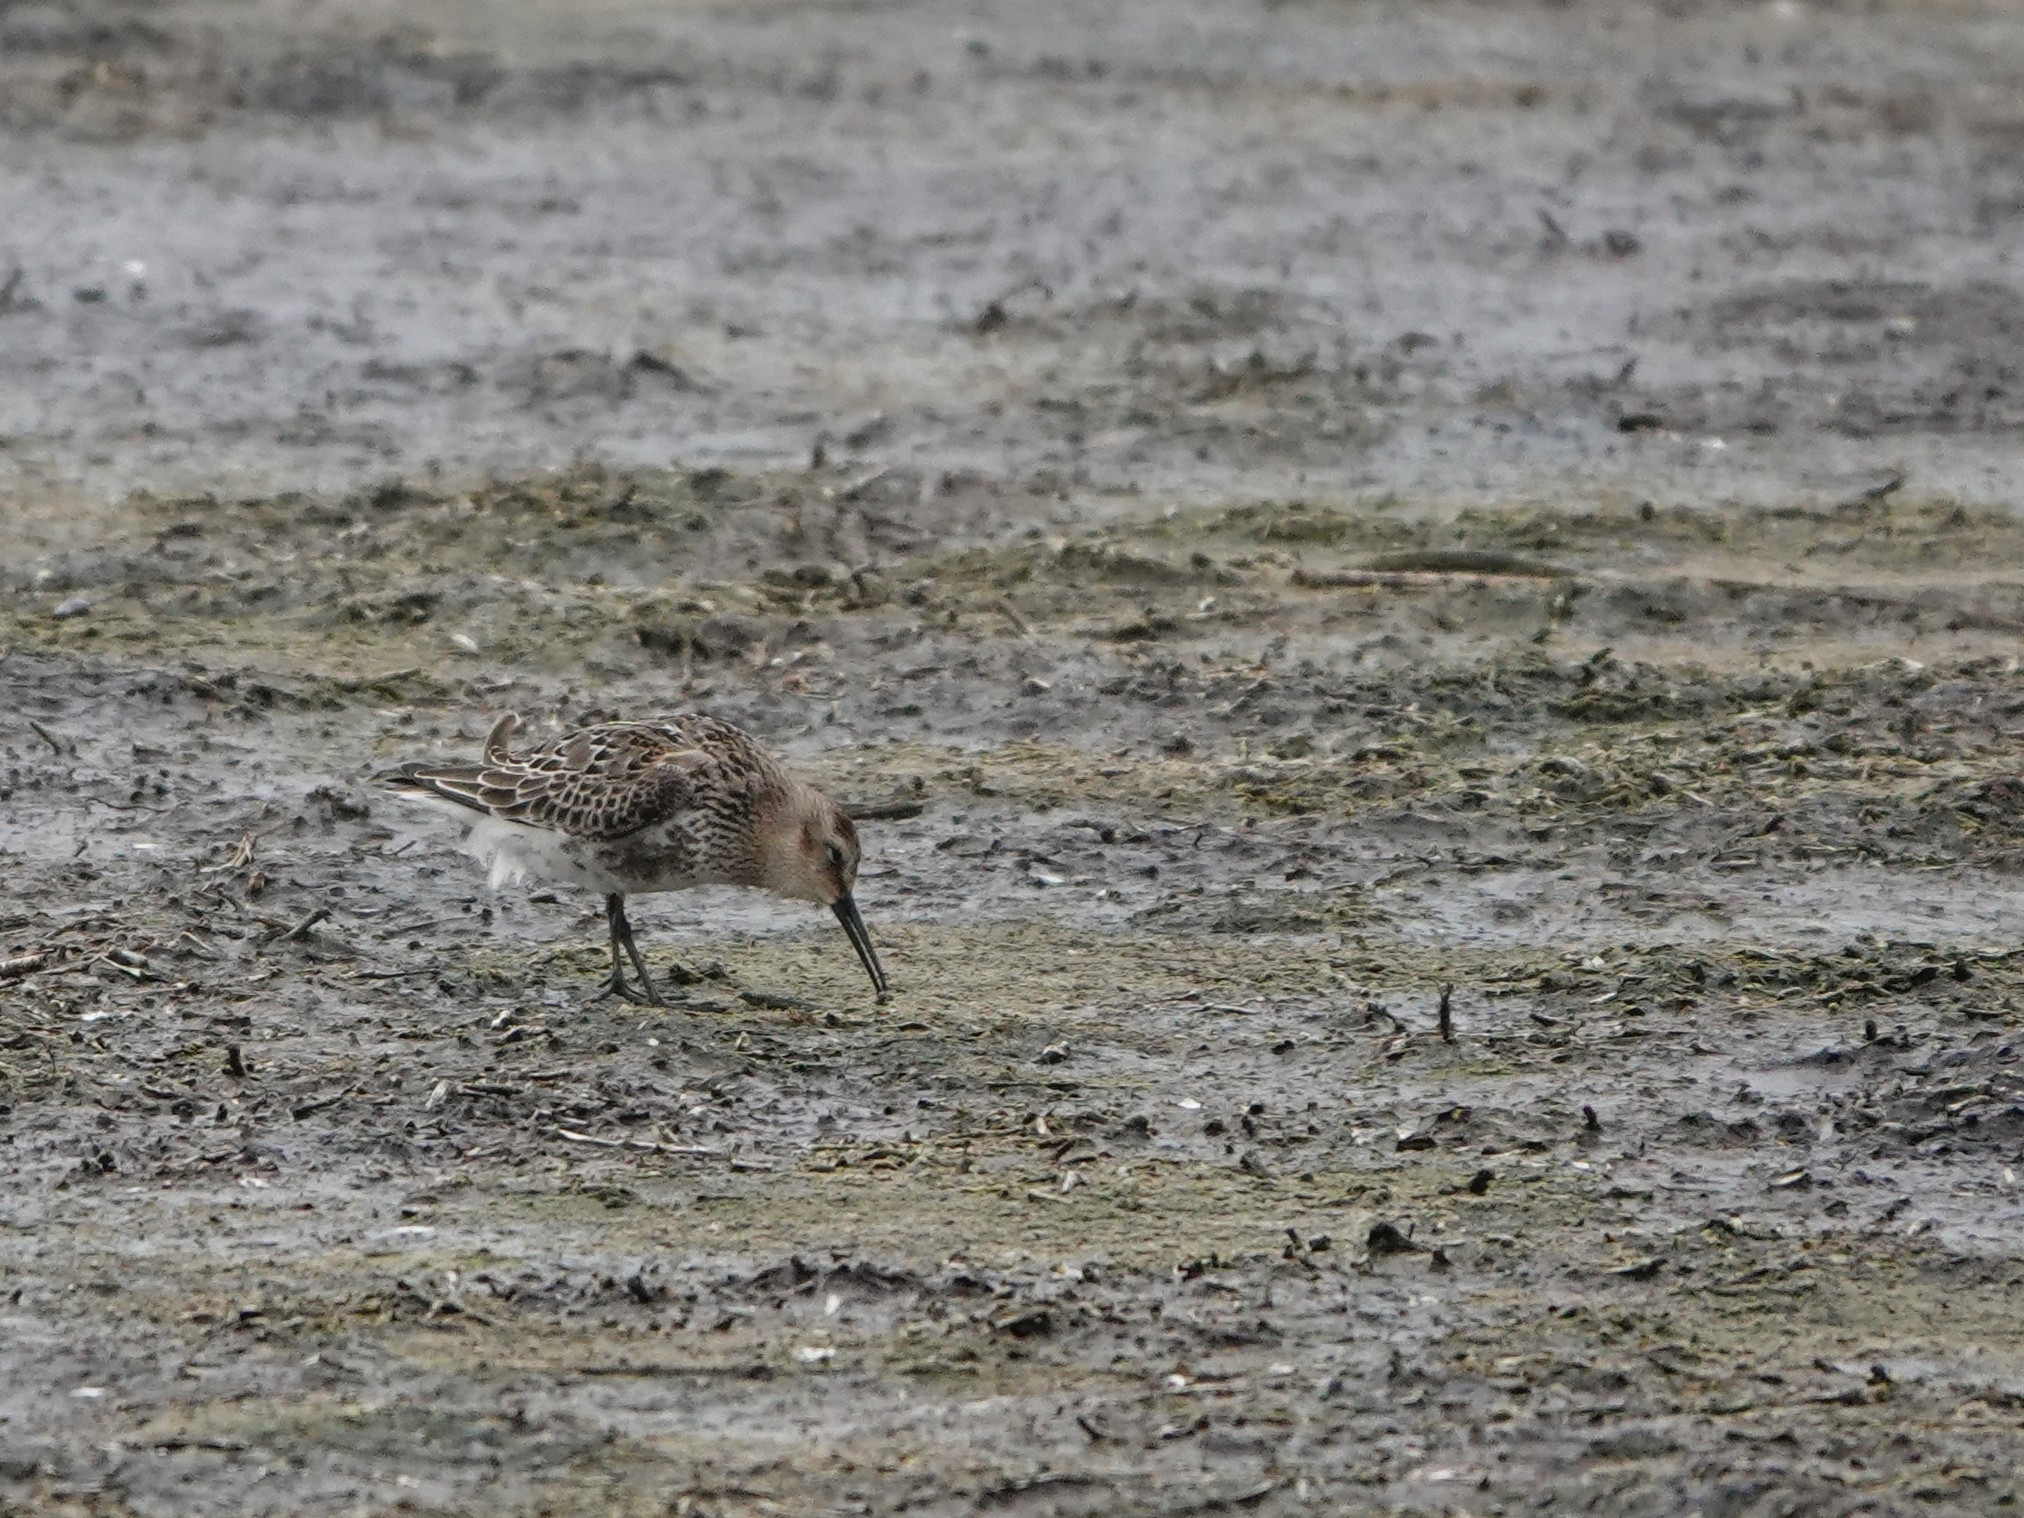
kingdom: Animalia
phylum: Chordata
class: Aves
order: Charadriiformes
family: Scolopacidae
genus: Calidris
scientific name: Calidris alpina
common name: Dunlin
